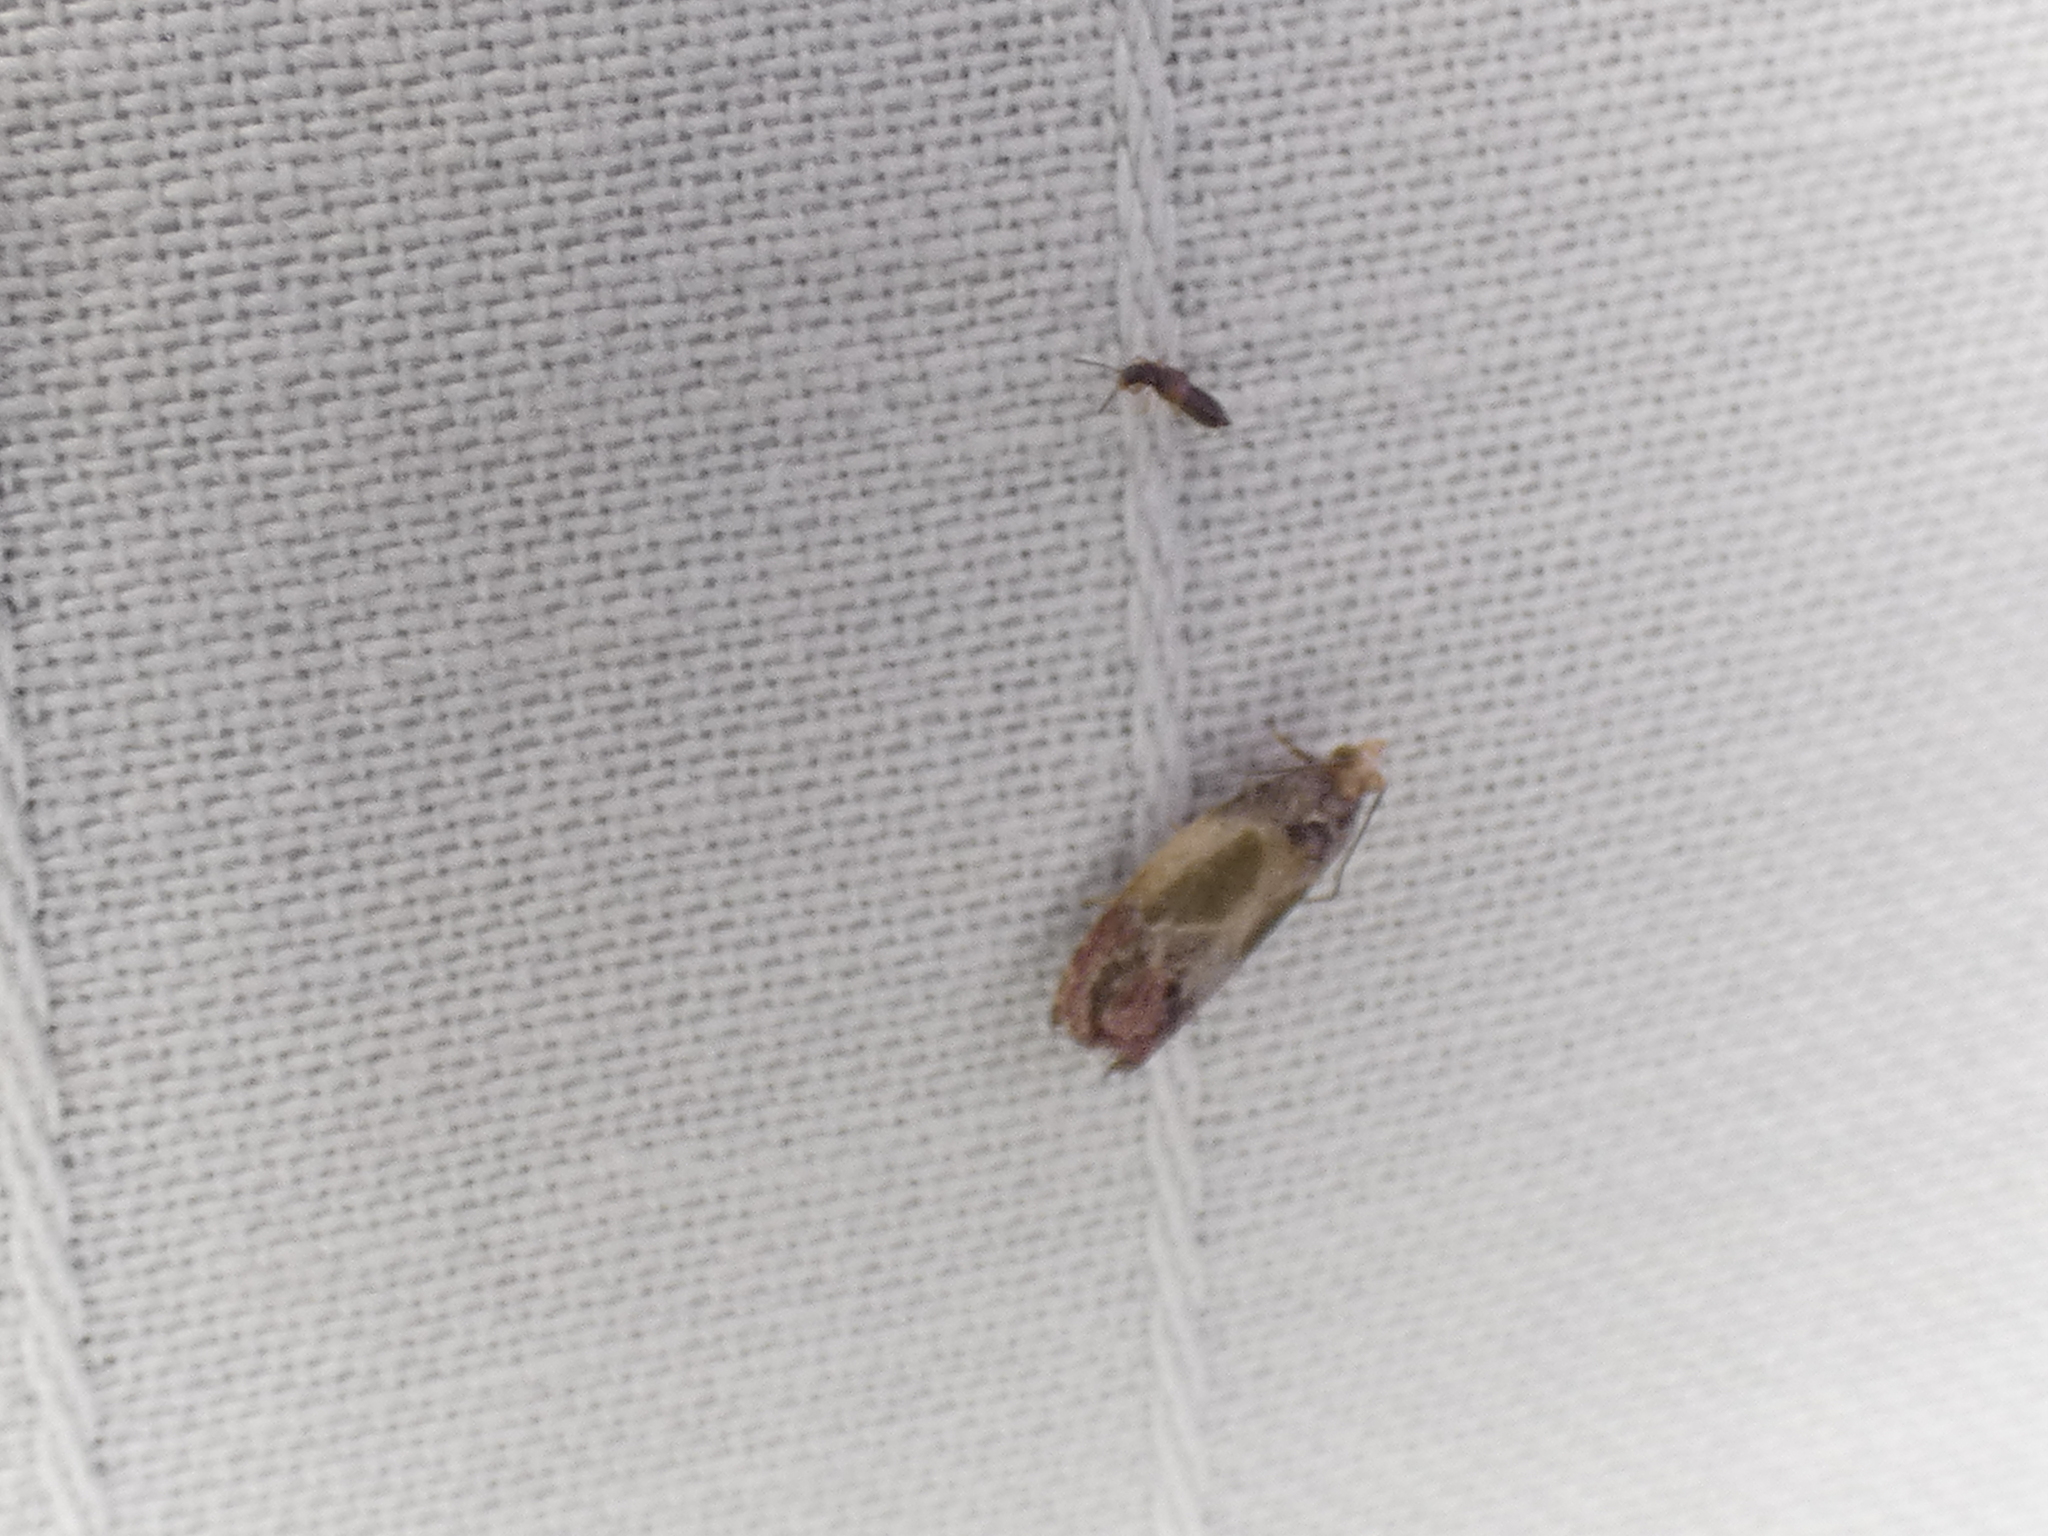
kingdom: Animalia
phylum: Arthropoda
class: Insecta
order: Lepidoptera
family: Tortricidae
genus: Eumarozia
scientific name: Eumarozia malachitana
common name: Sculptured moth
